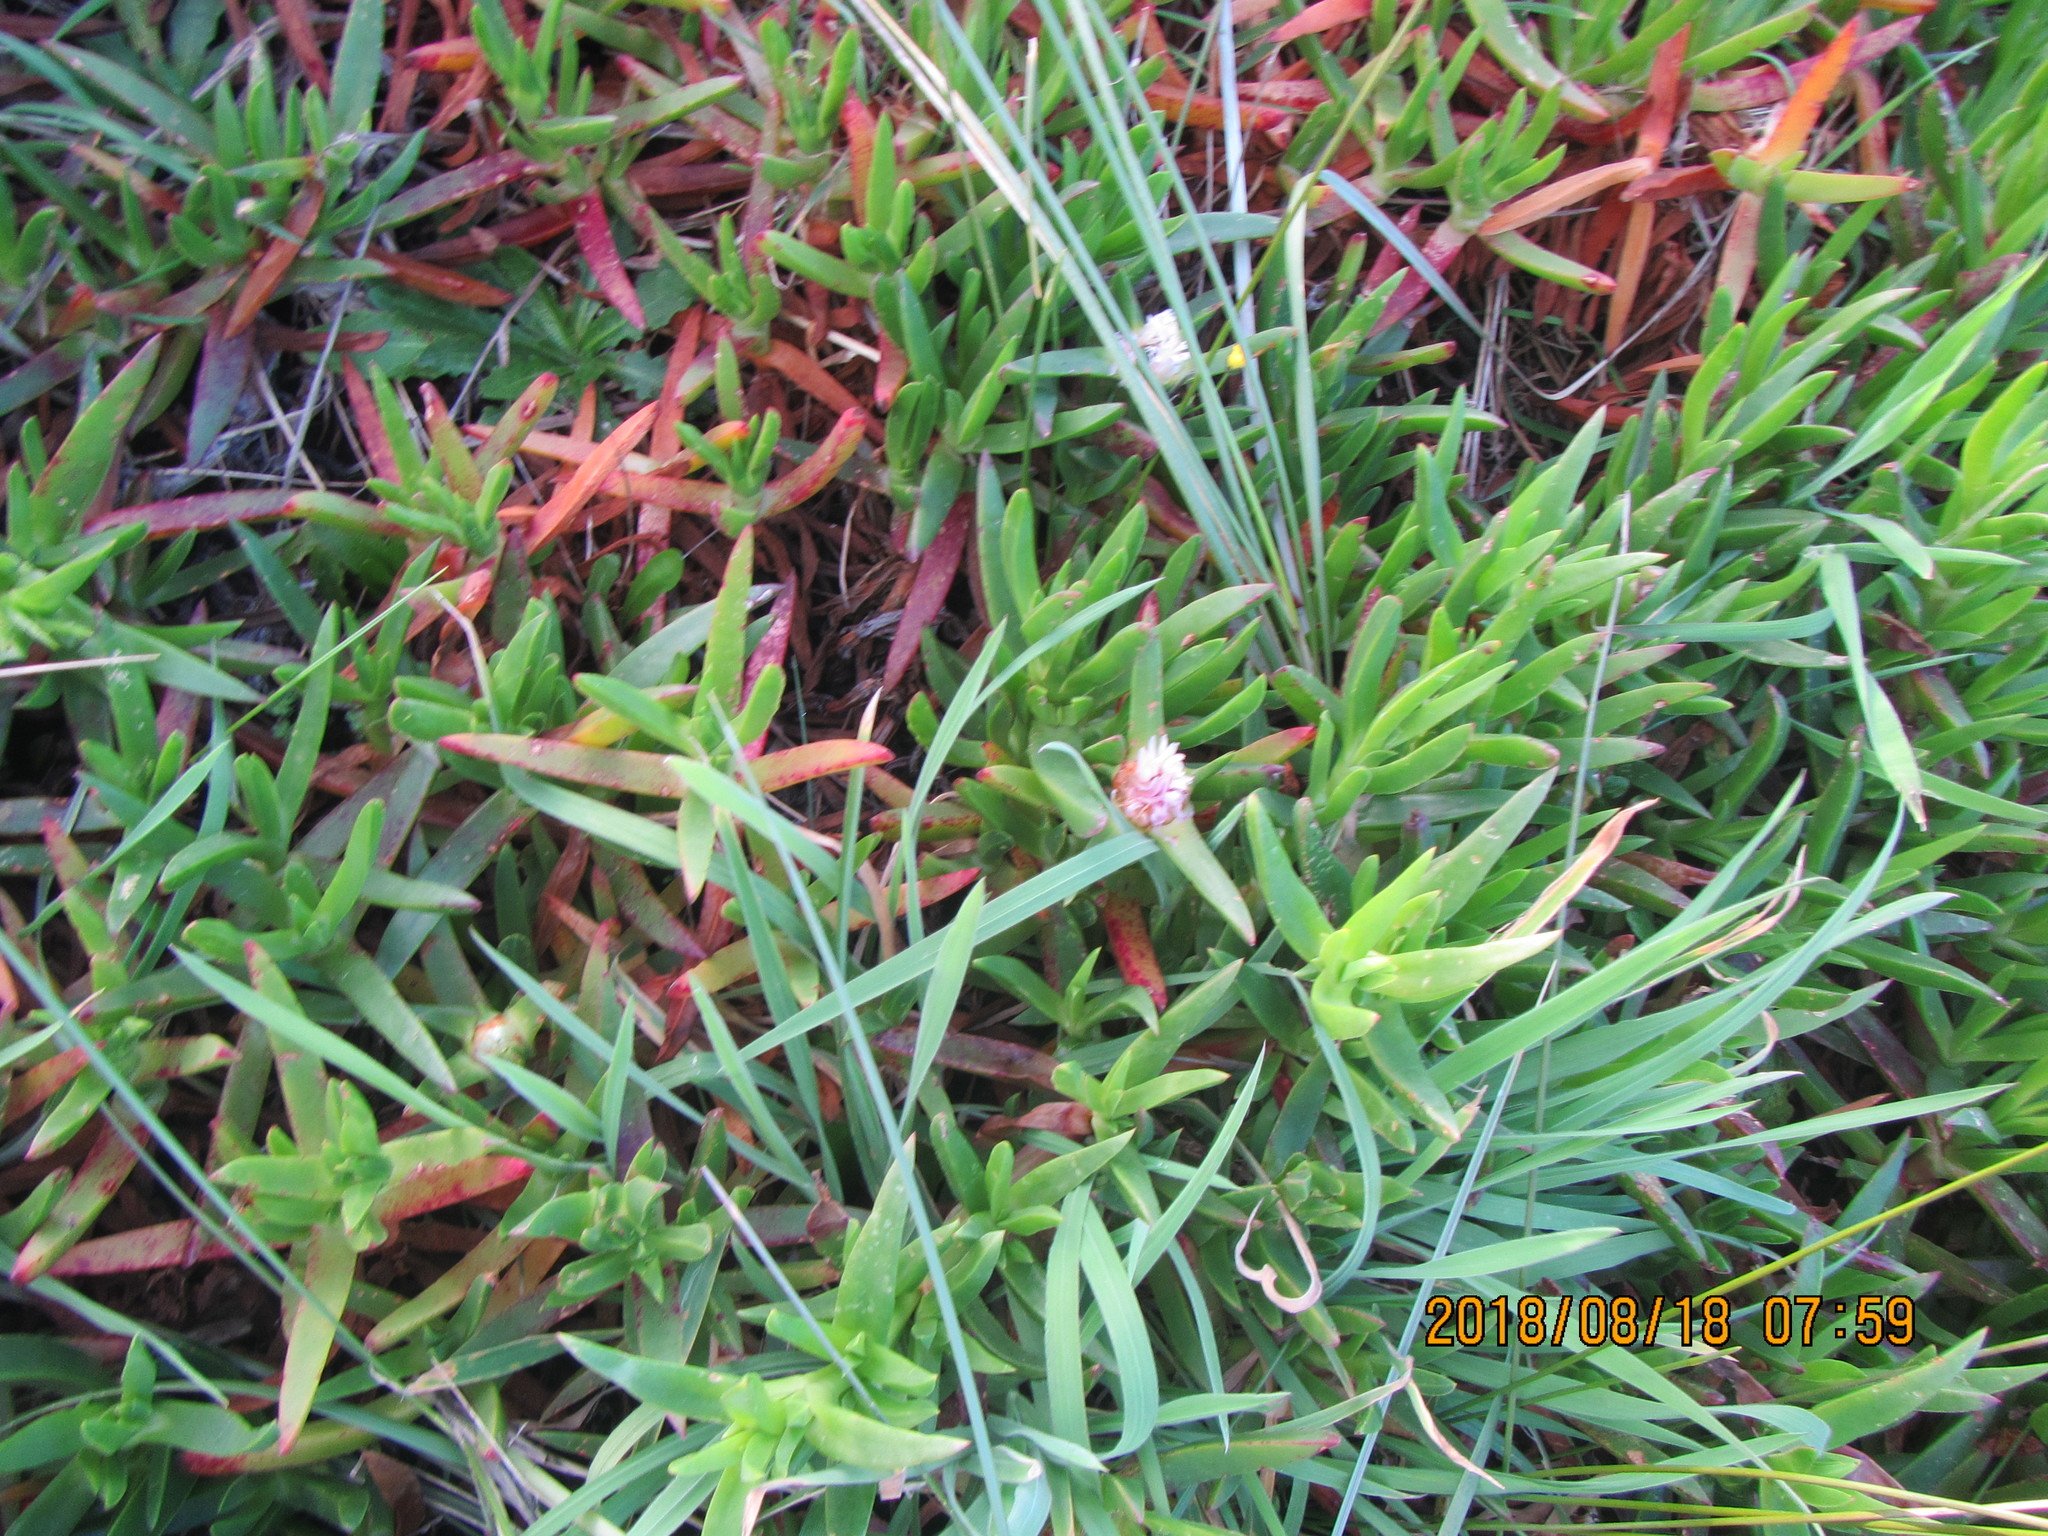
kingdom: Plantae
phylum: Tracheophyta
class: Magnoliopsida
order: Caryophyllales
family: Aizoaceae
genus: Carpobrotus
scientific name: Carpobrotus edulis
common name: Hottentot-fig
